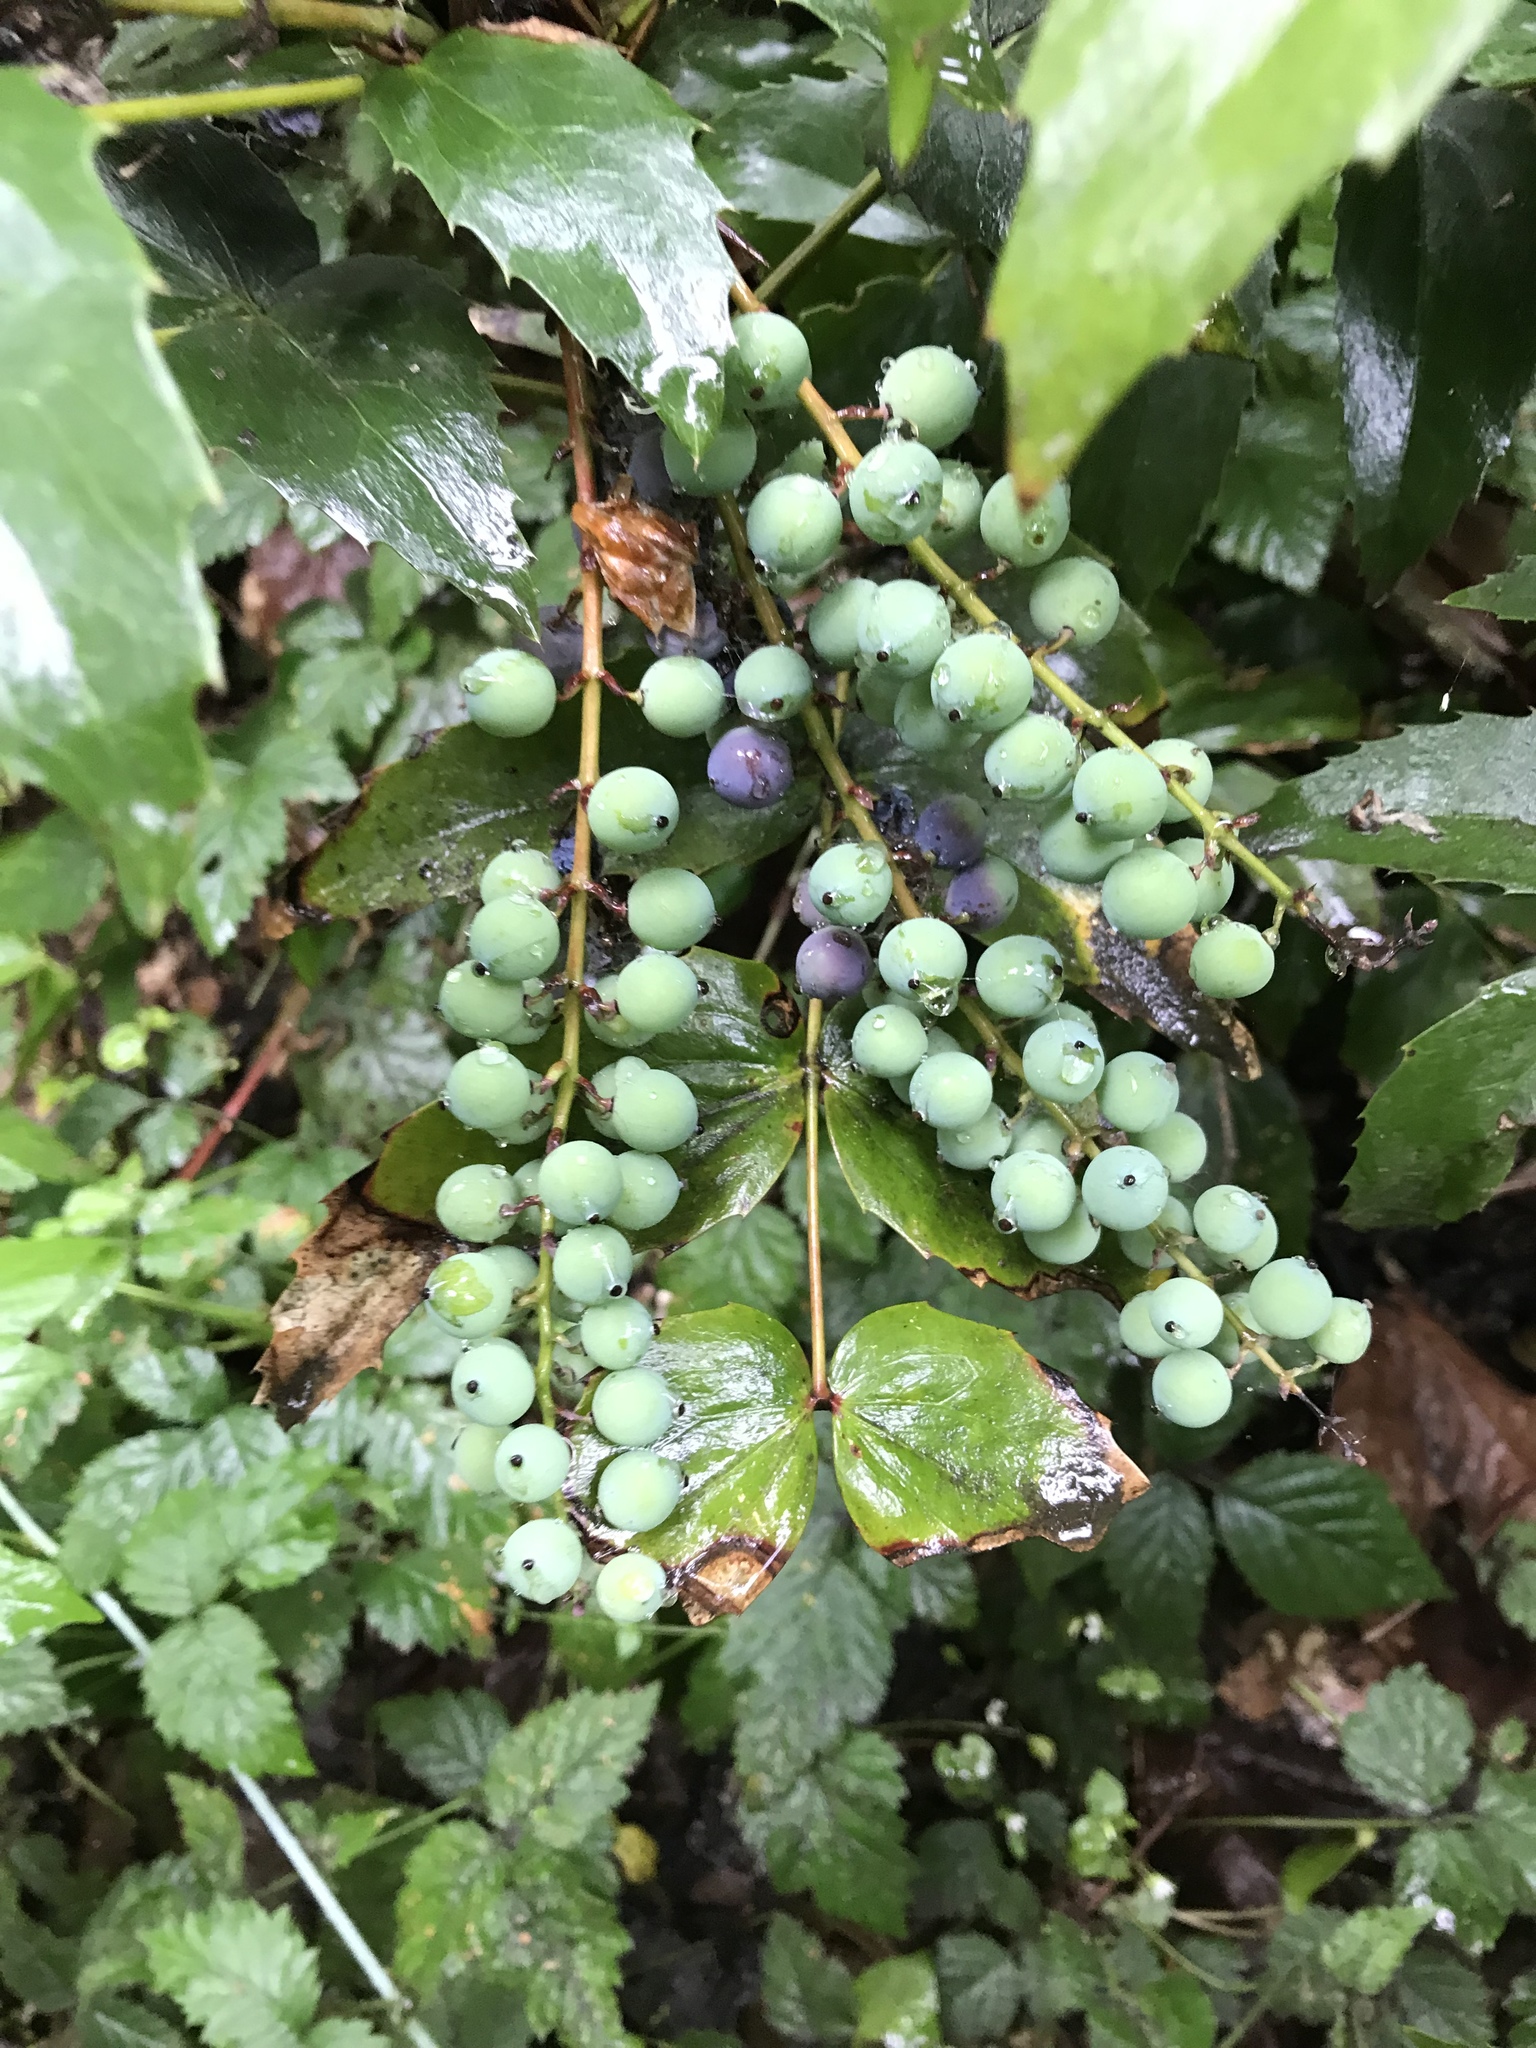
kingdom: Plantae
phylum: Tracheophyta
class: Magnoliopsida
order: Ranunculales
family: Berberidaceae
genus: Mahonia
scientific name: Mahonia nervosa
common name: Cascade oregon-grape
